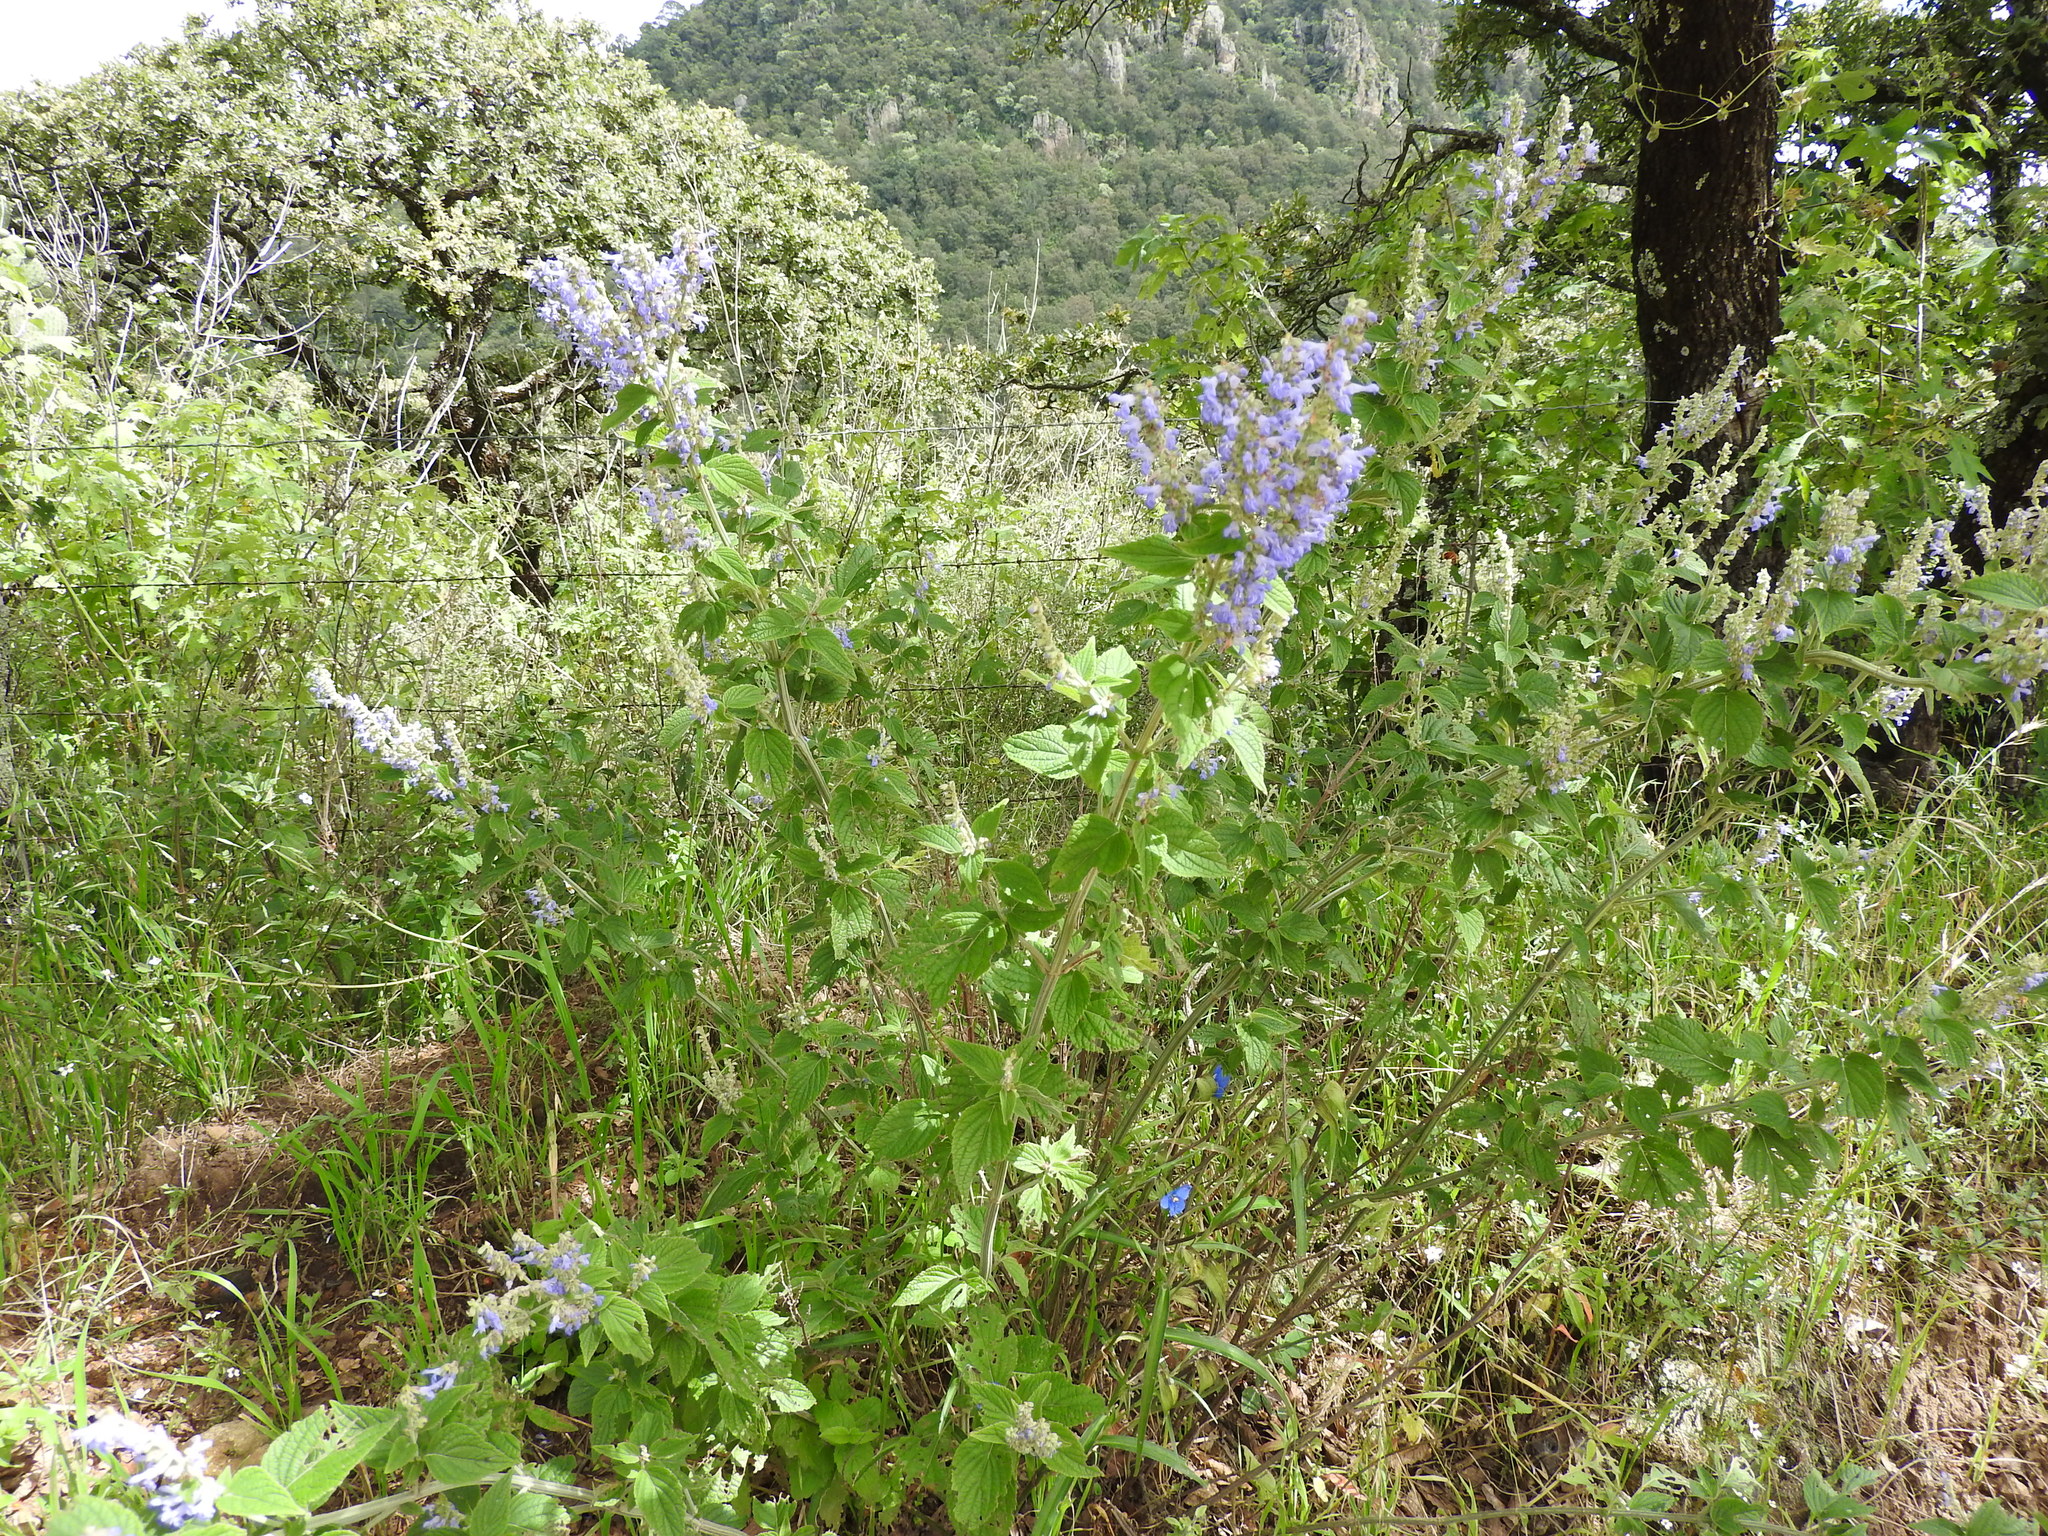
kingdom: Plantae
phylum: Tracheophyta
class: Magnoliopsida
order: Lamiales
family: Lamiaceae
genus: Salvia
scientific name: Salvia polystachia
